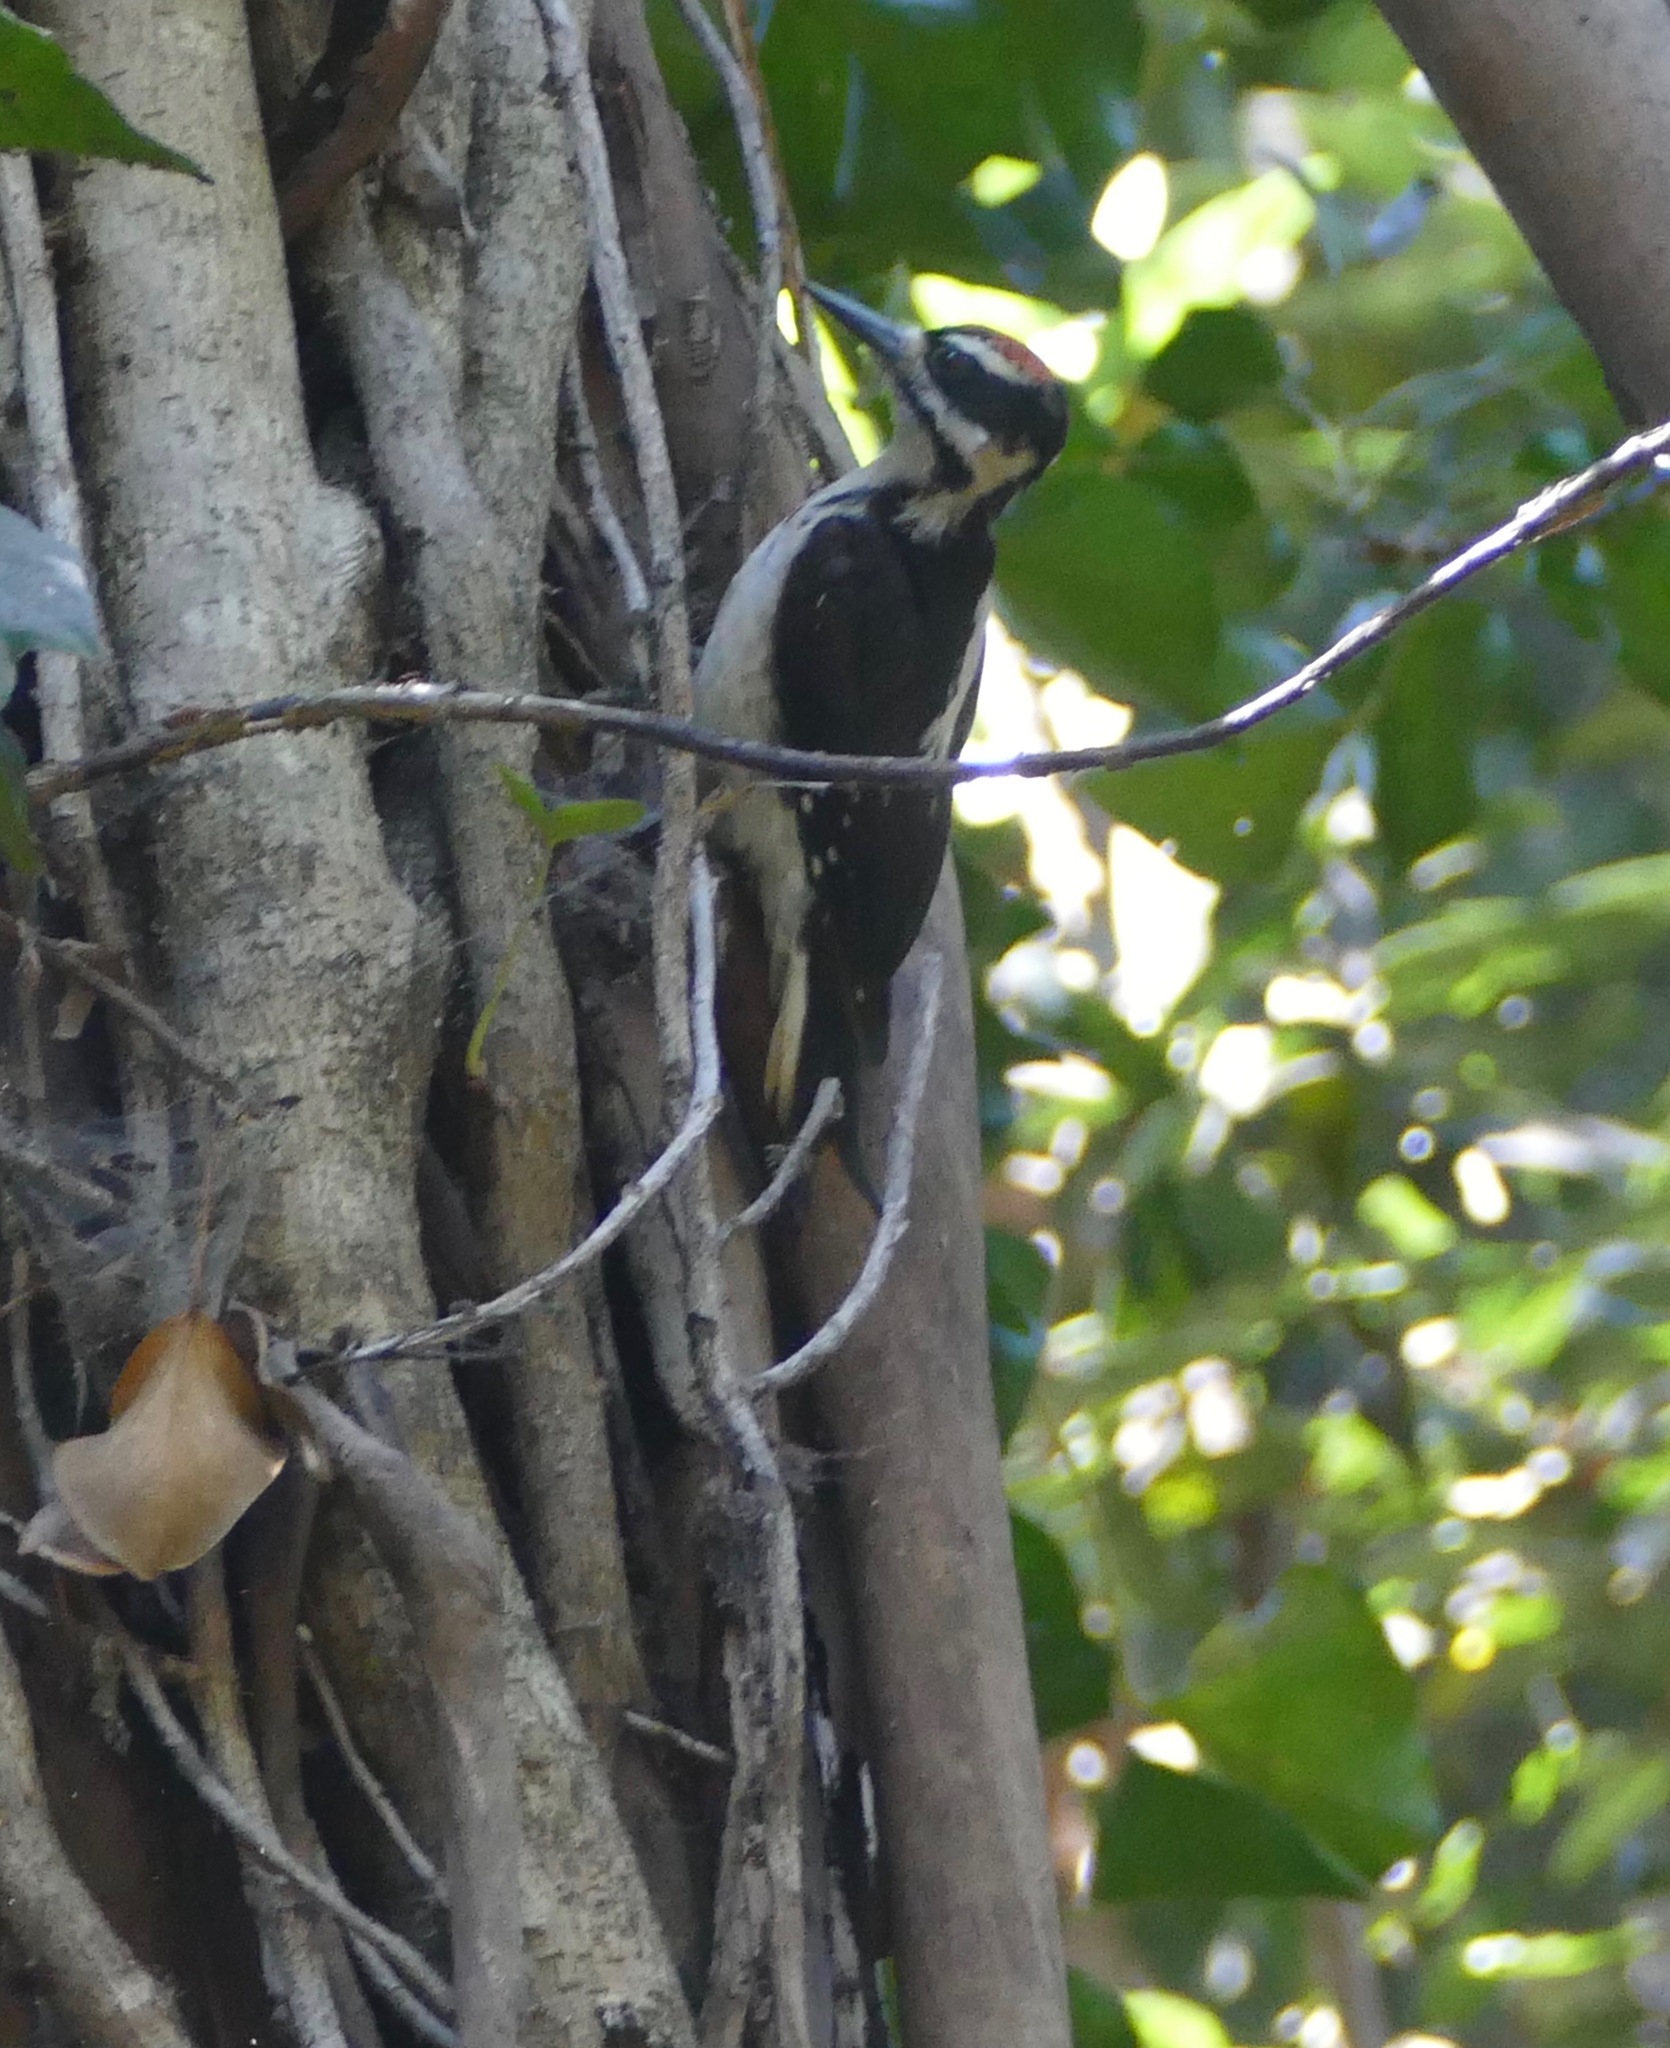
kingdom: Animalia
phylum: Chordata
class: Aves
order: Piciformes
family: Picidae
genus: Leuconotopicus
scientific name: Leuconotopicus villosus
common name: Hairy woodpecker
